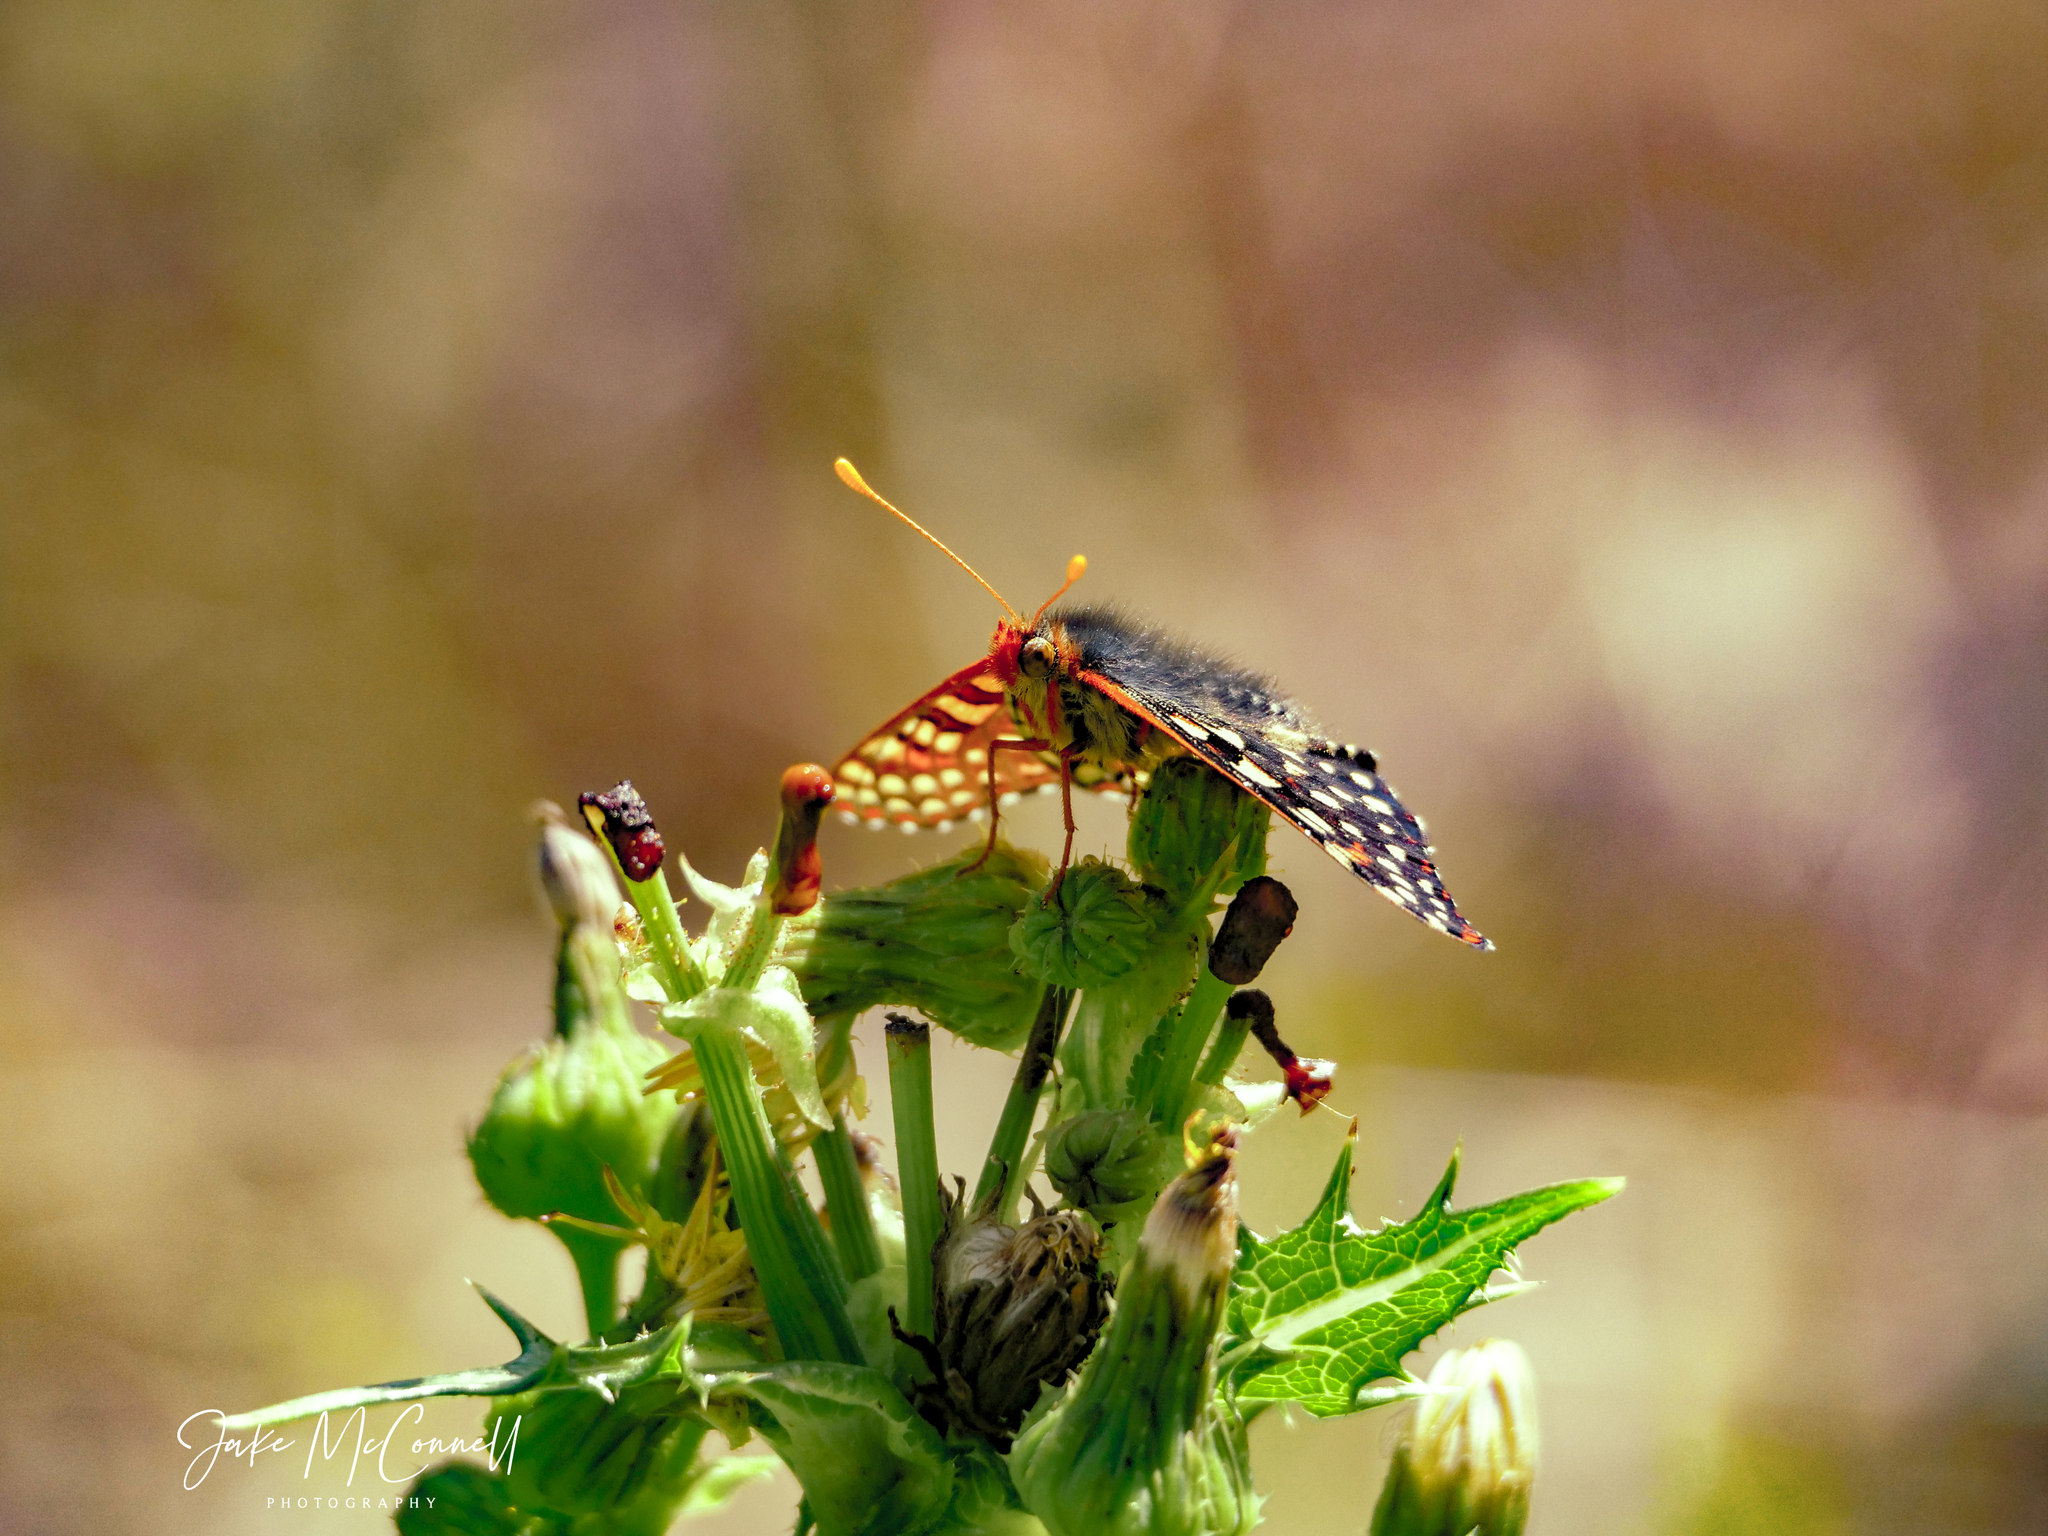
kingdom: Animalia
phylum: Arthropoda
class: Insecta
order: Lepidoptera
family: Nymphalidae
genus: Occidryas
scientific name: Occidryas chalcedona
